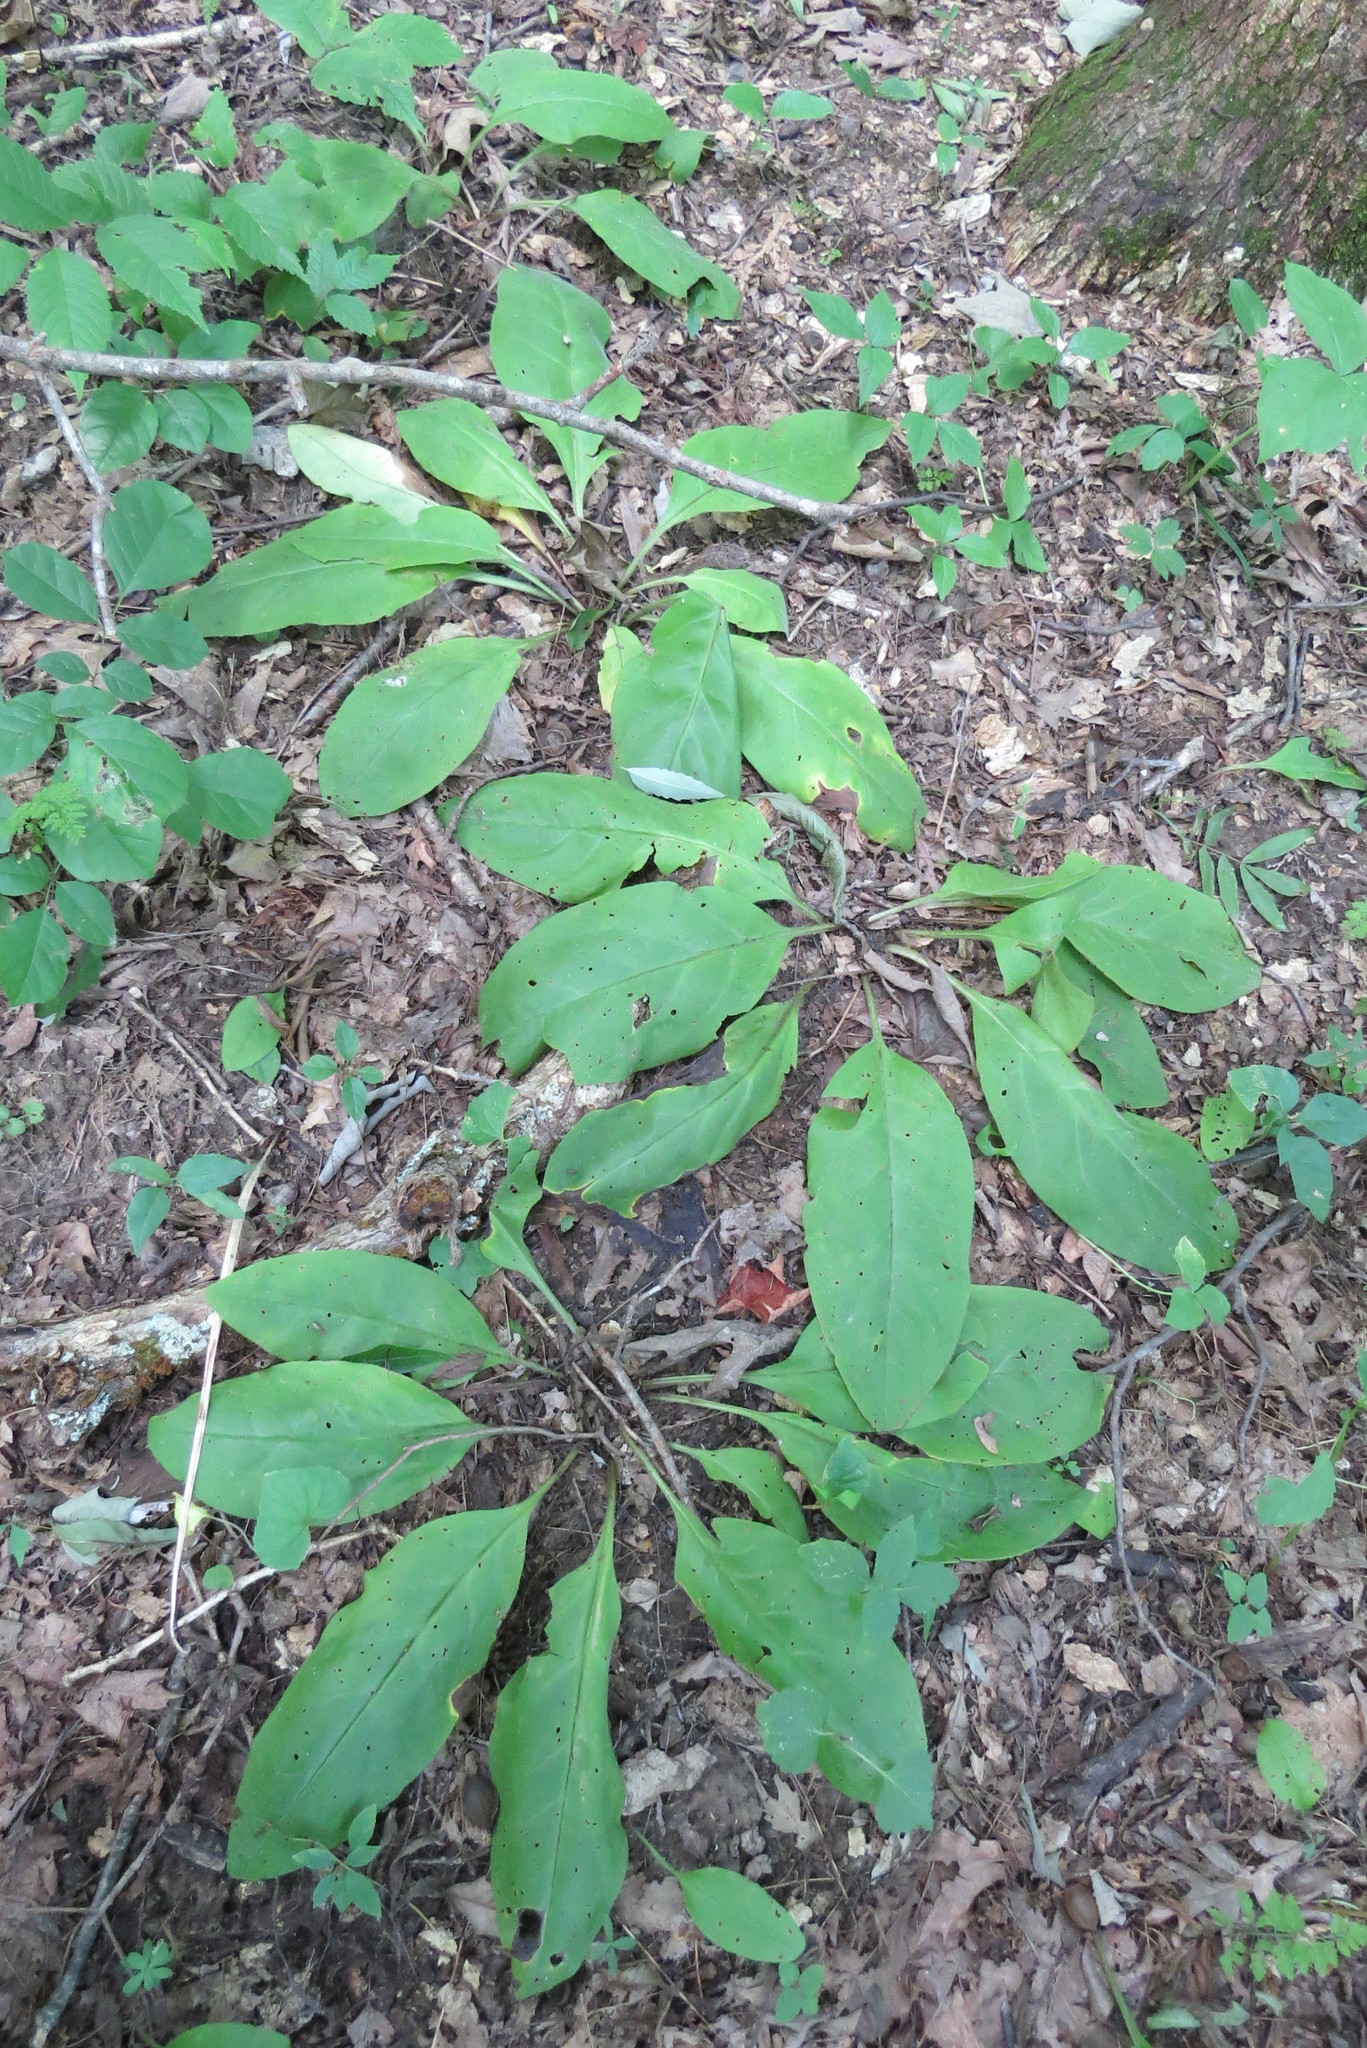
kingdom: Plantae
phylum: Tracheophyta
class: Magnoliopsida
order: Boraginales
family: Boraginaceae
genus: Andersonglossum
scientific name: Andersonglossum virginianum
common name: Wild comfrey
